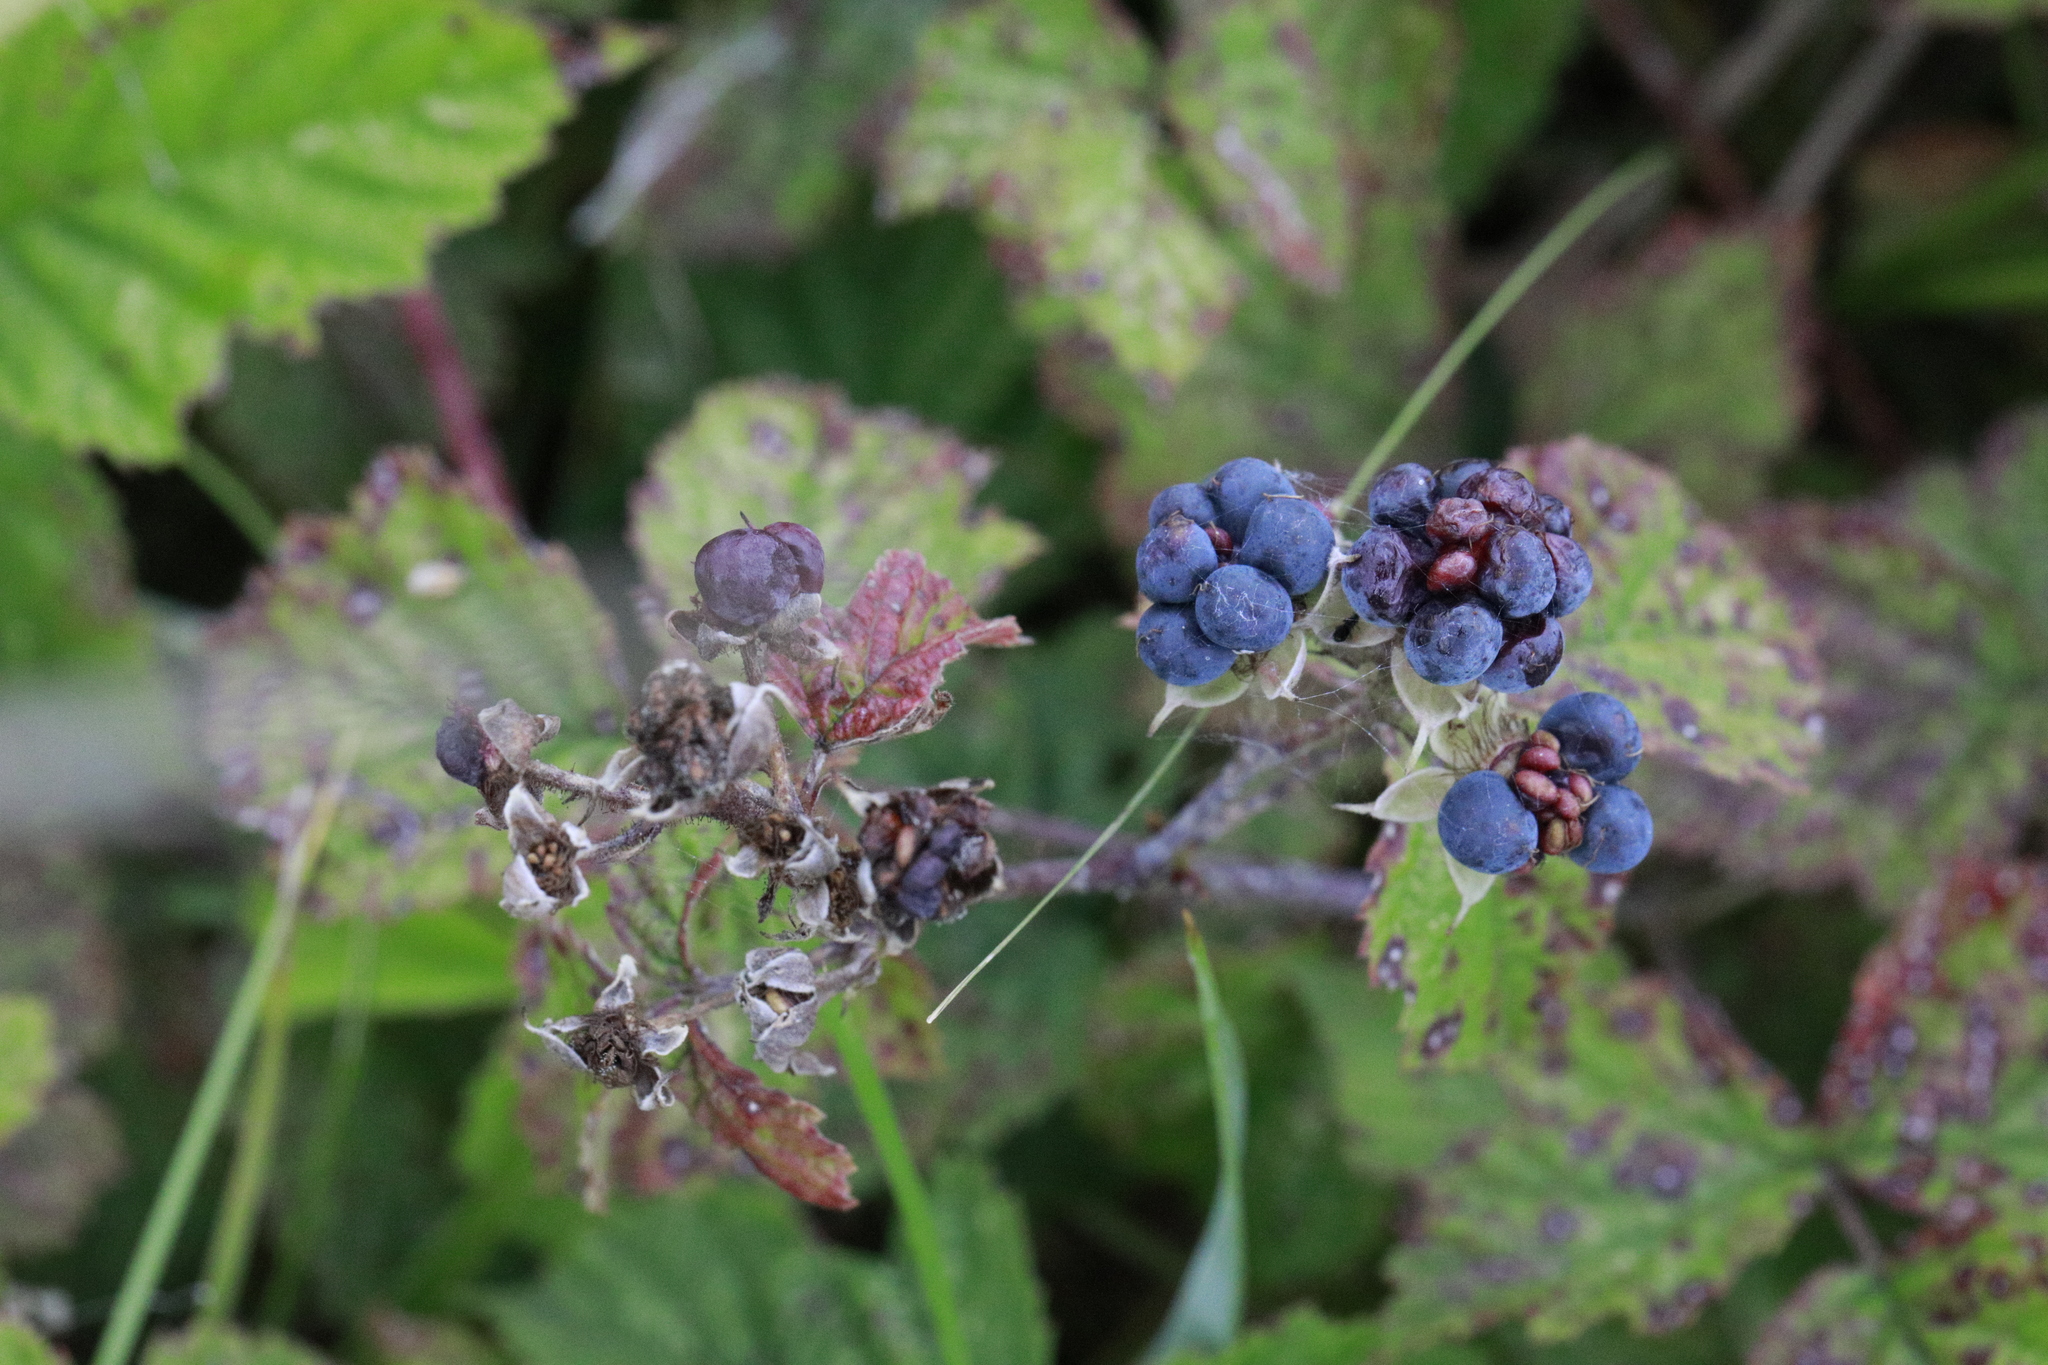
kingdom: Plantae
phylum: Tracheophyta
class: Magnoliopsida
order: Rosales
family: Rosaceae
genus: Rubus
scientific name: Rubus caesius
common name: Dewberry
